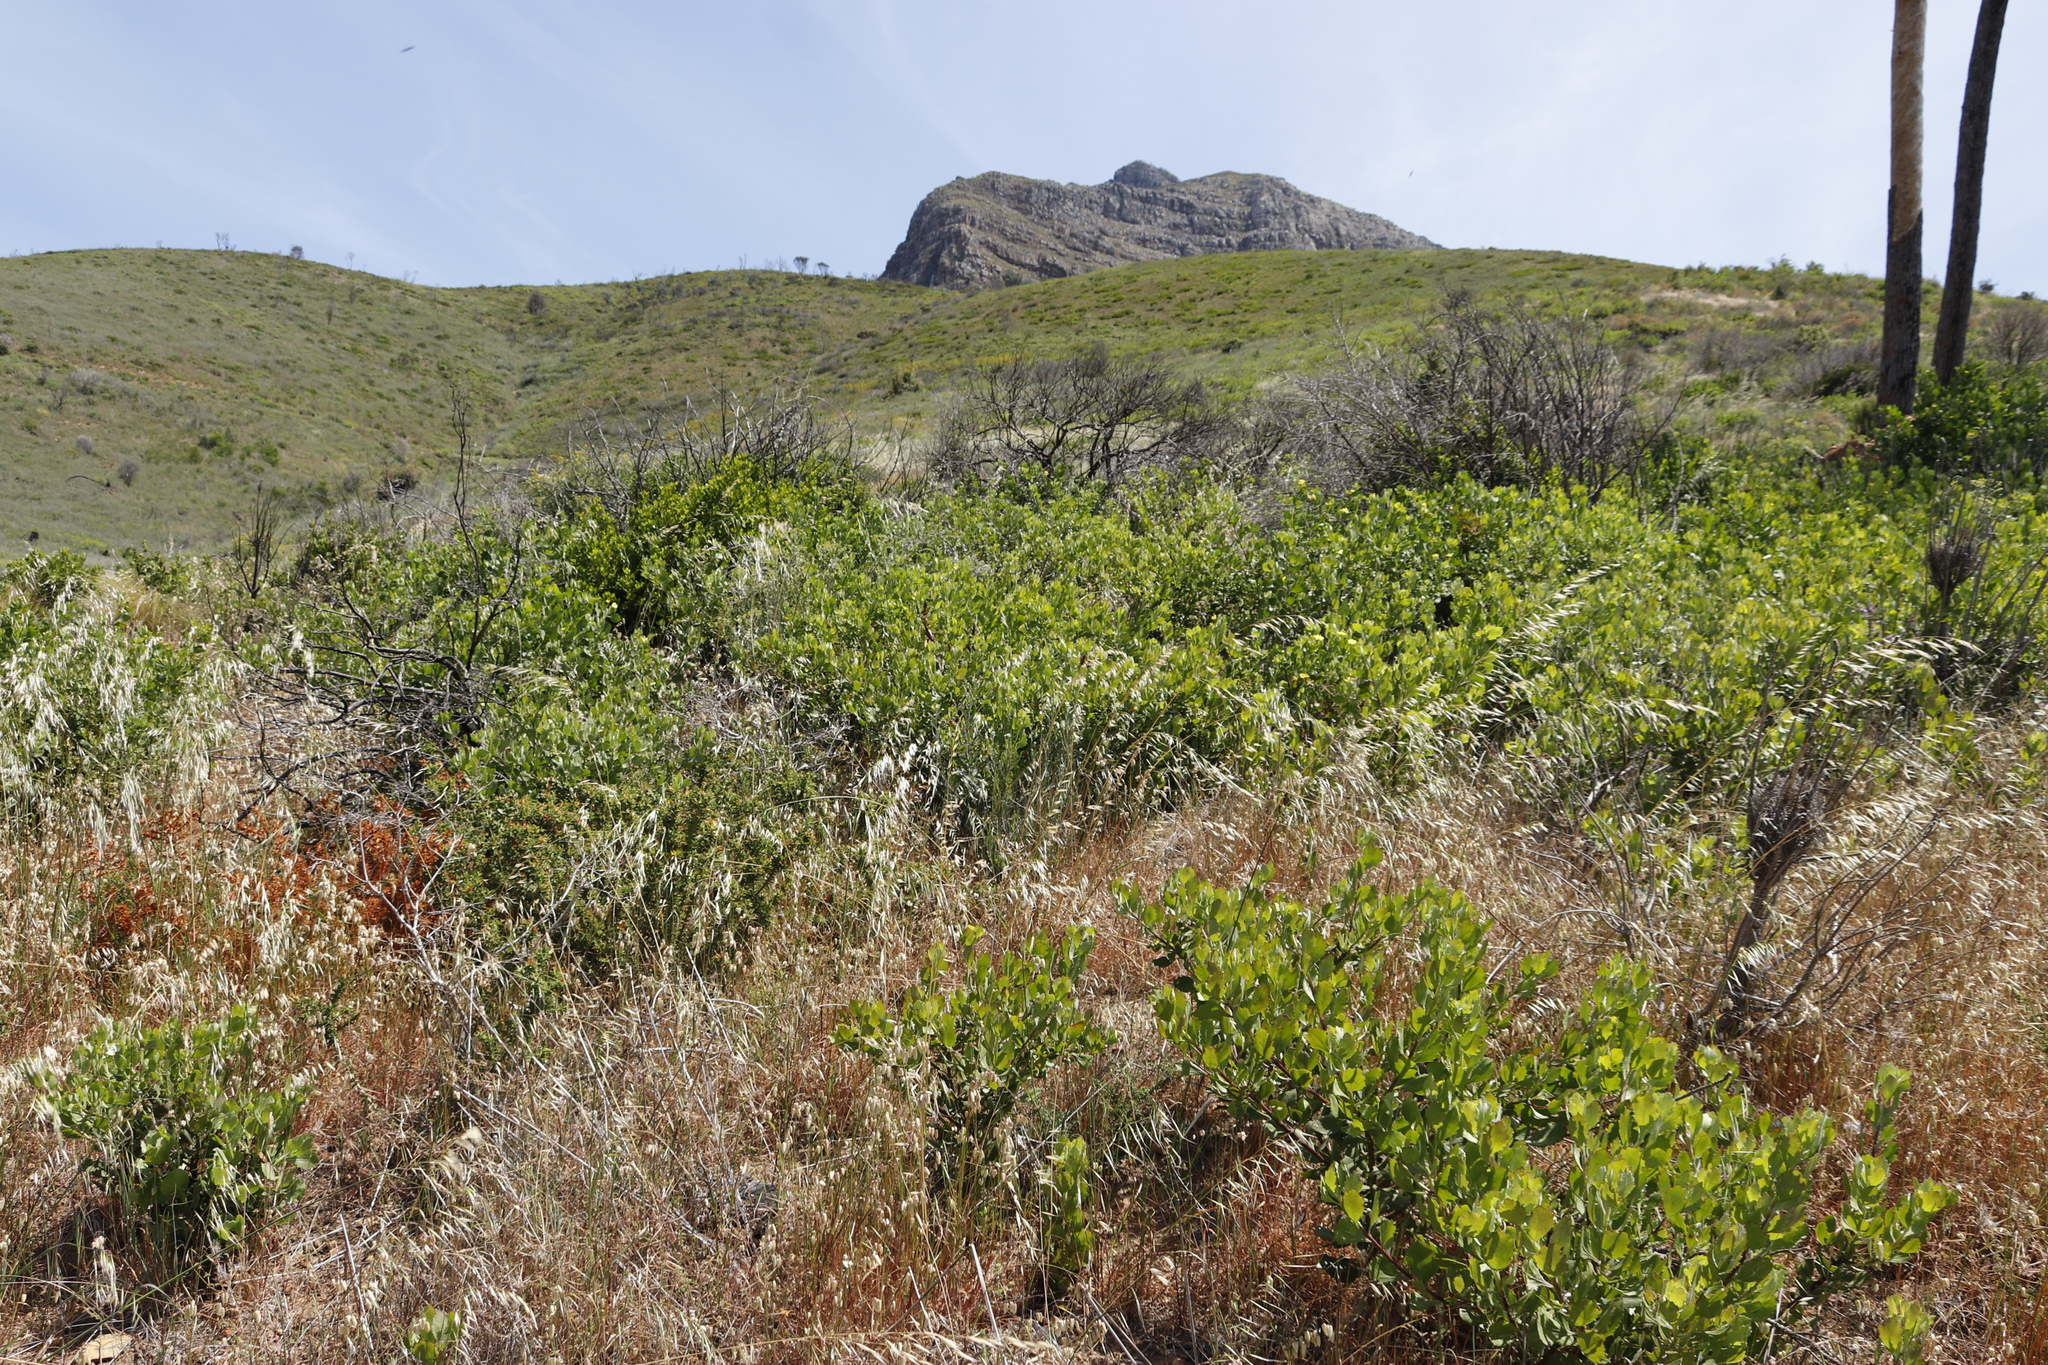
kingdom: Plantae
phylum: Tracheophyta
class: Liliopsida
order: Poales
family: Poaceae
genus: Avena
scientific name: Avena fatua
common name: Wild oat
